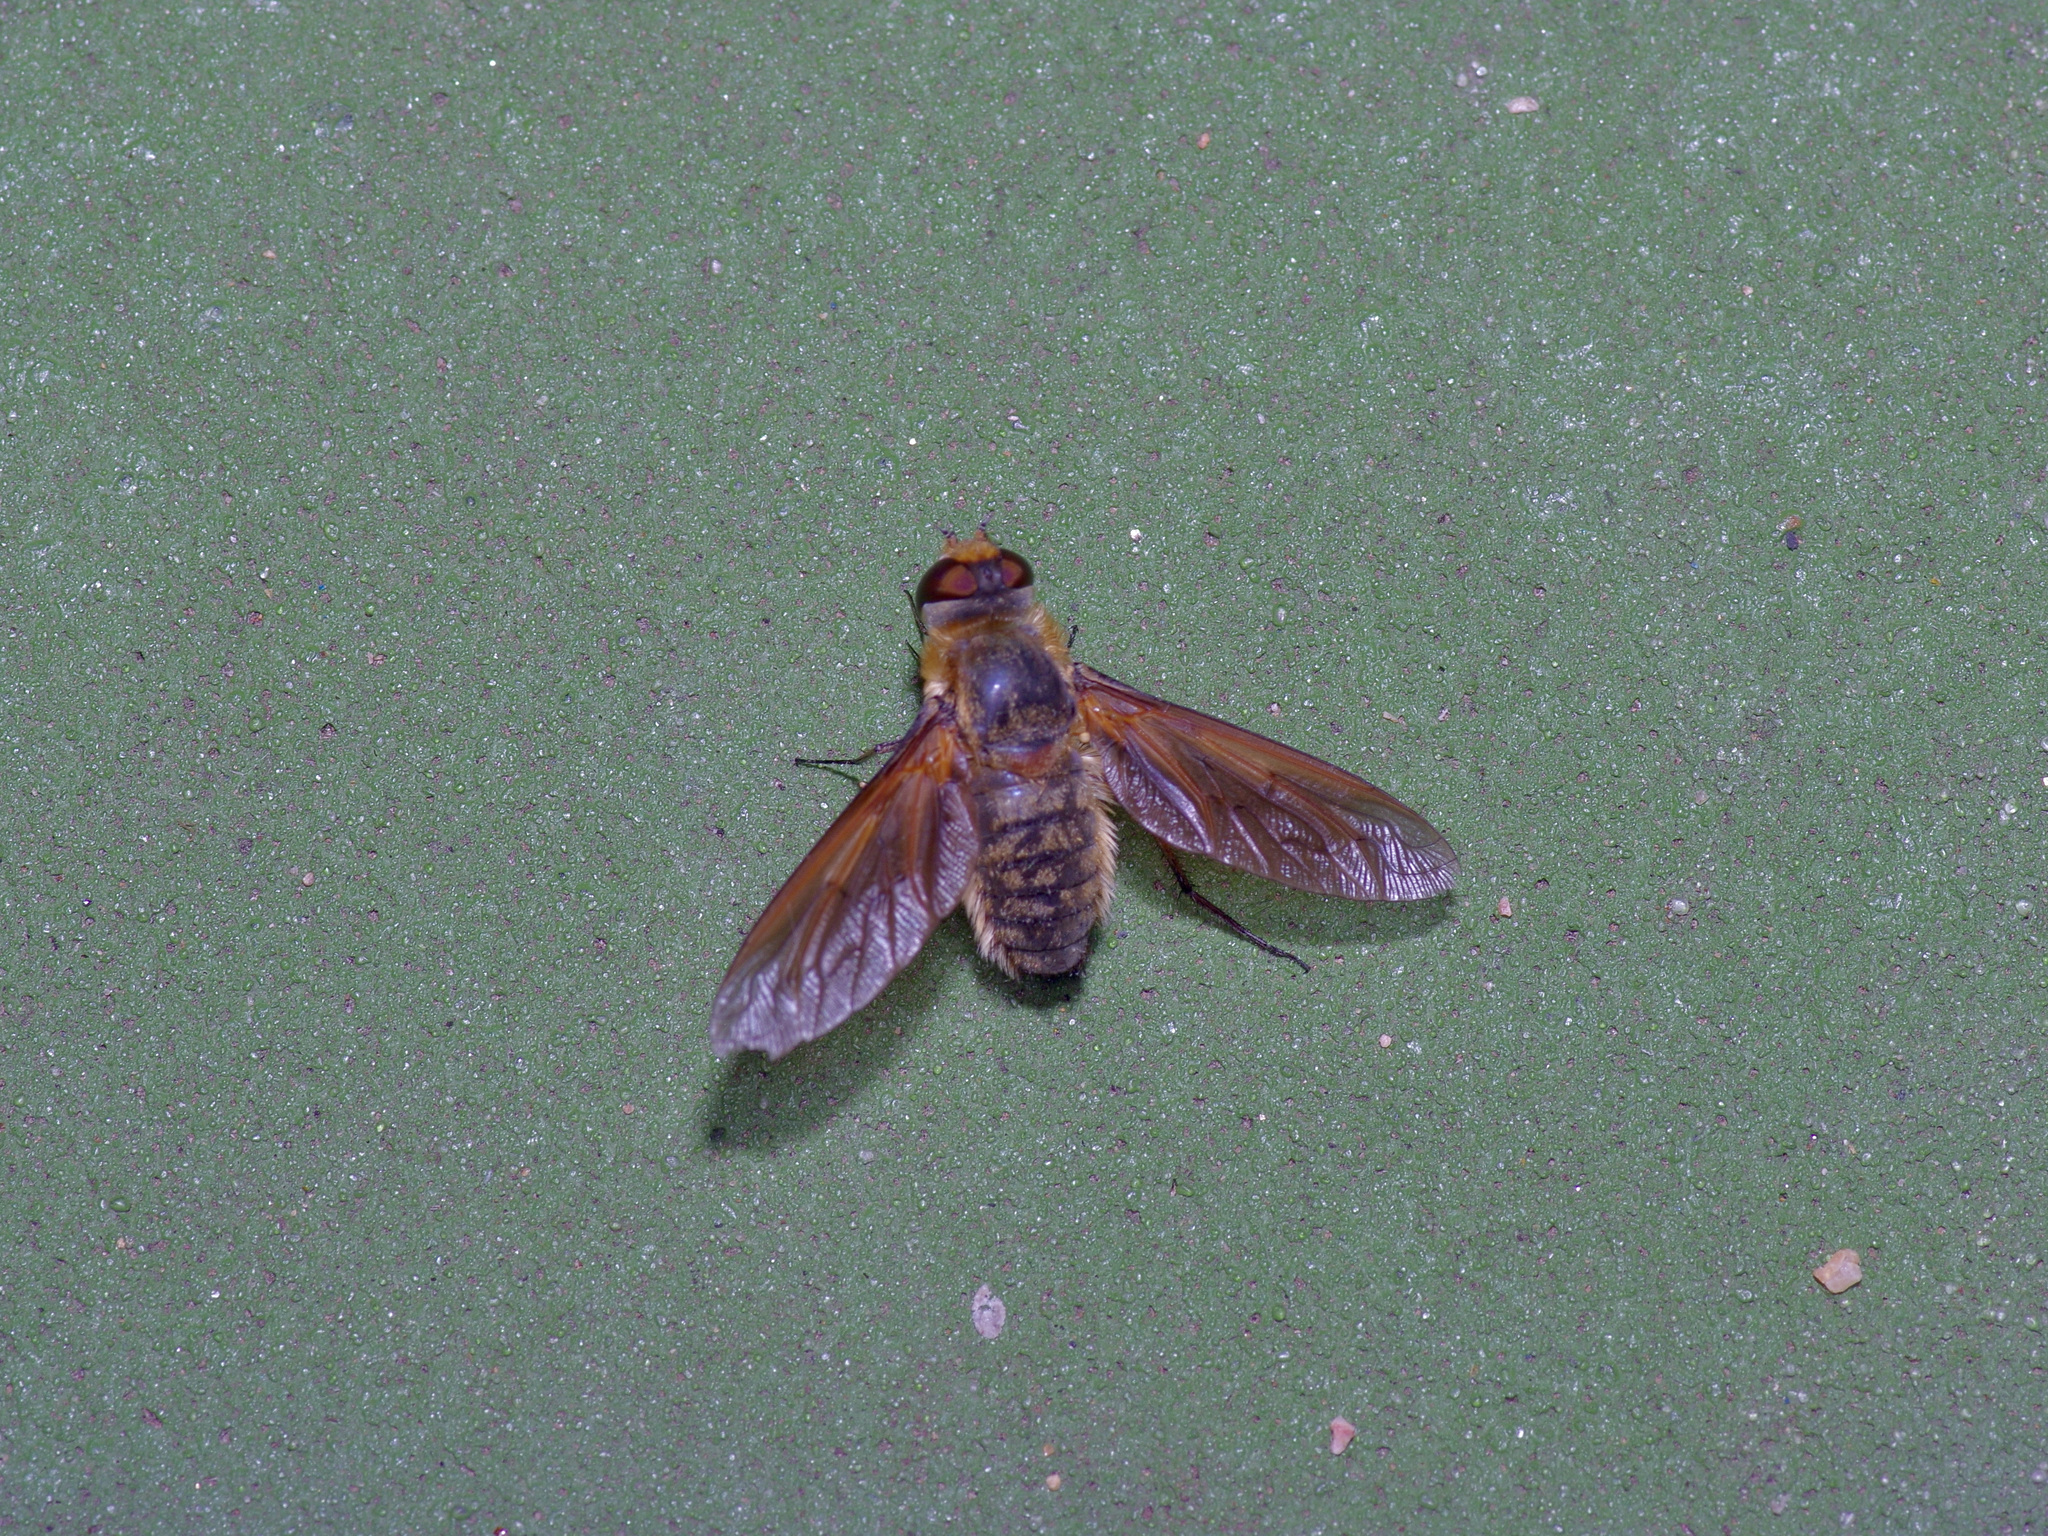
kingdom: Animalia
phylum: Arthropoda
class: Insecta
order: Diptera
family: Bombyliidae
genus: Poecilanthrax
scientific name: Poecilanthrax lucifer
